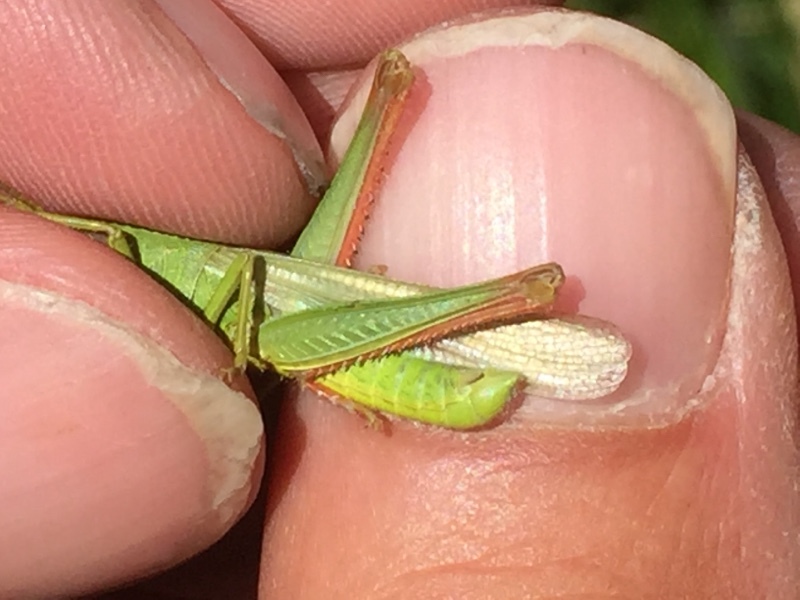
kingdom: Animalia
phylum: Arthropoda
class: Insecta
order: Orthoptera
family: Acrididae
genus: Chorthippus
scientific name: Chorthippus jucundus
